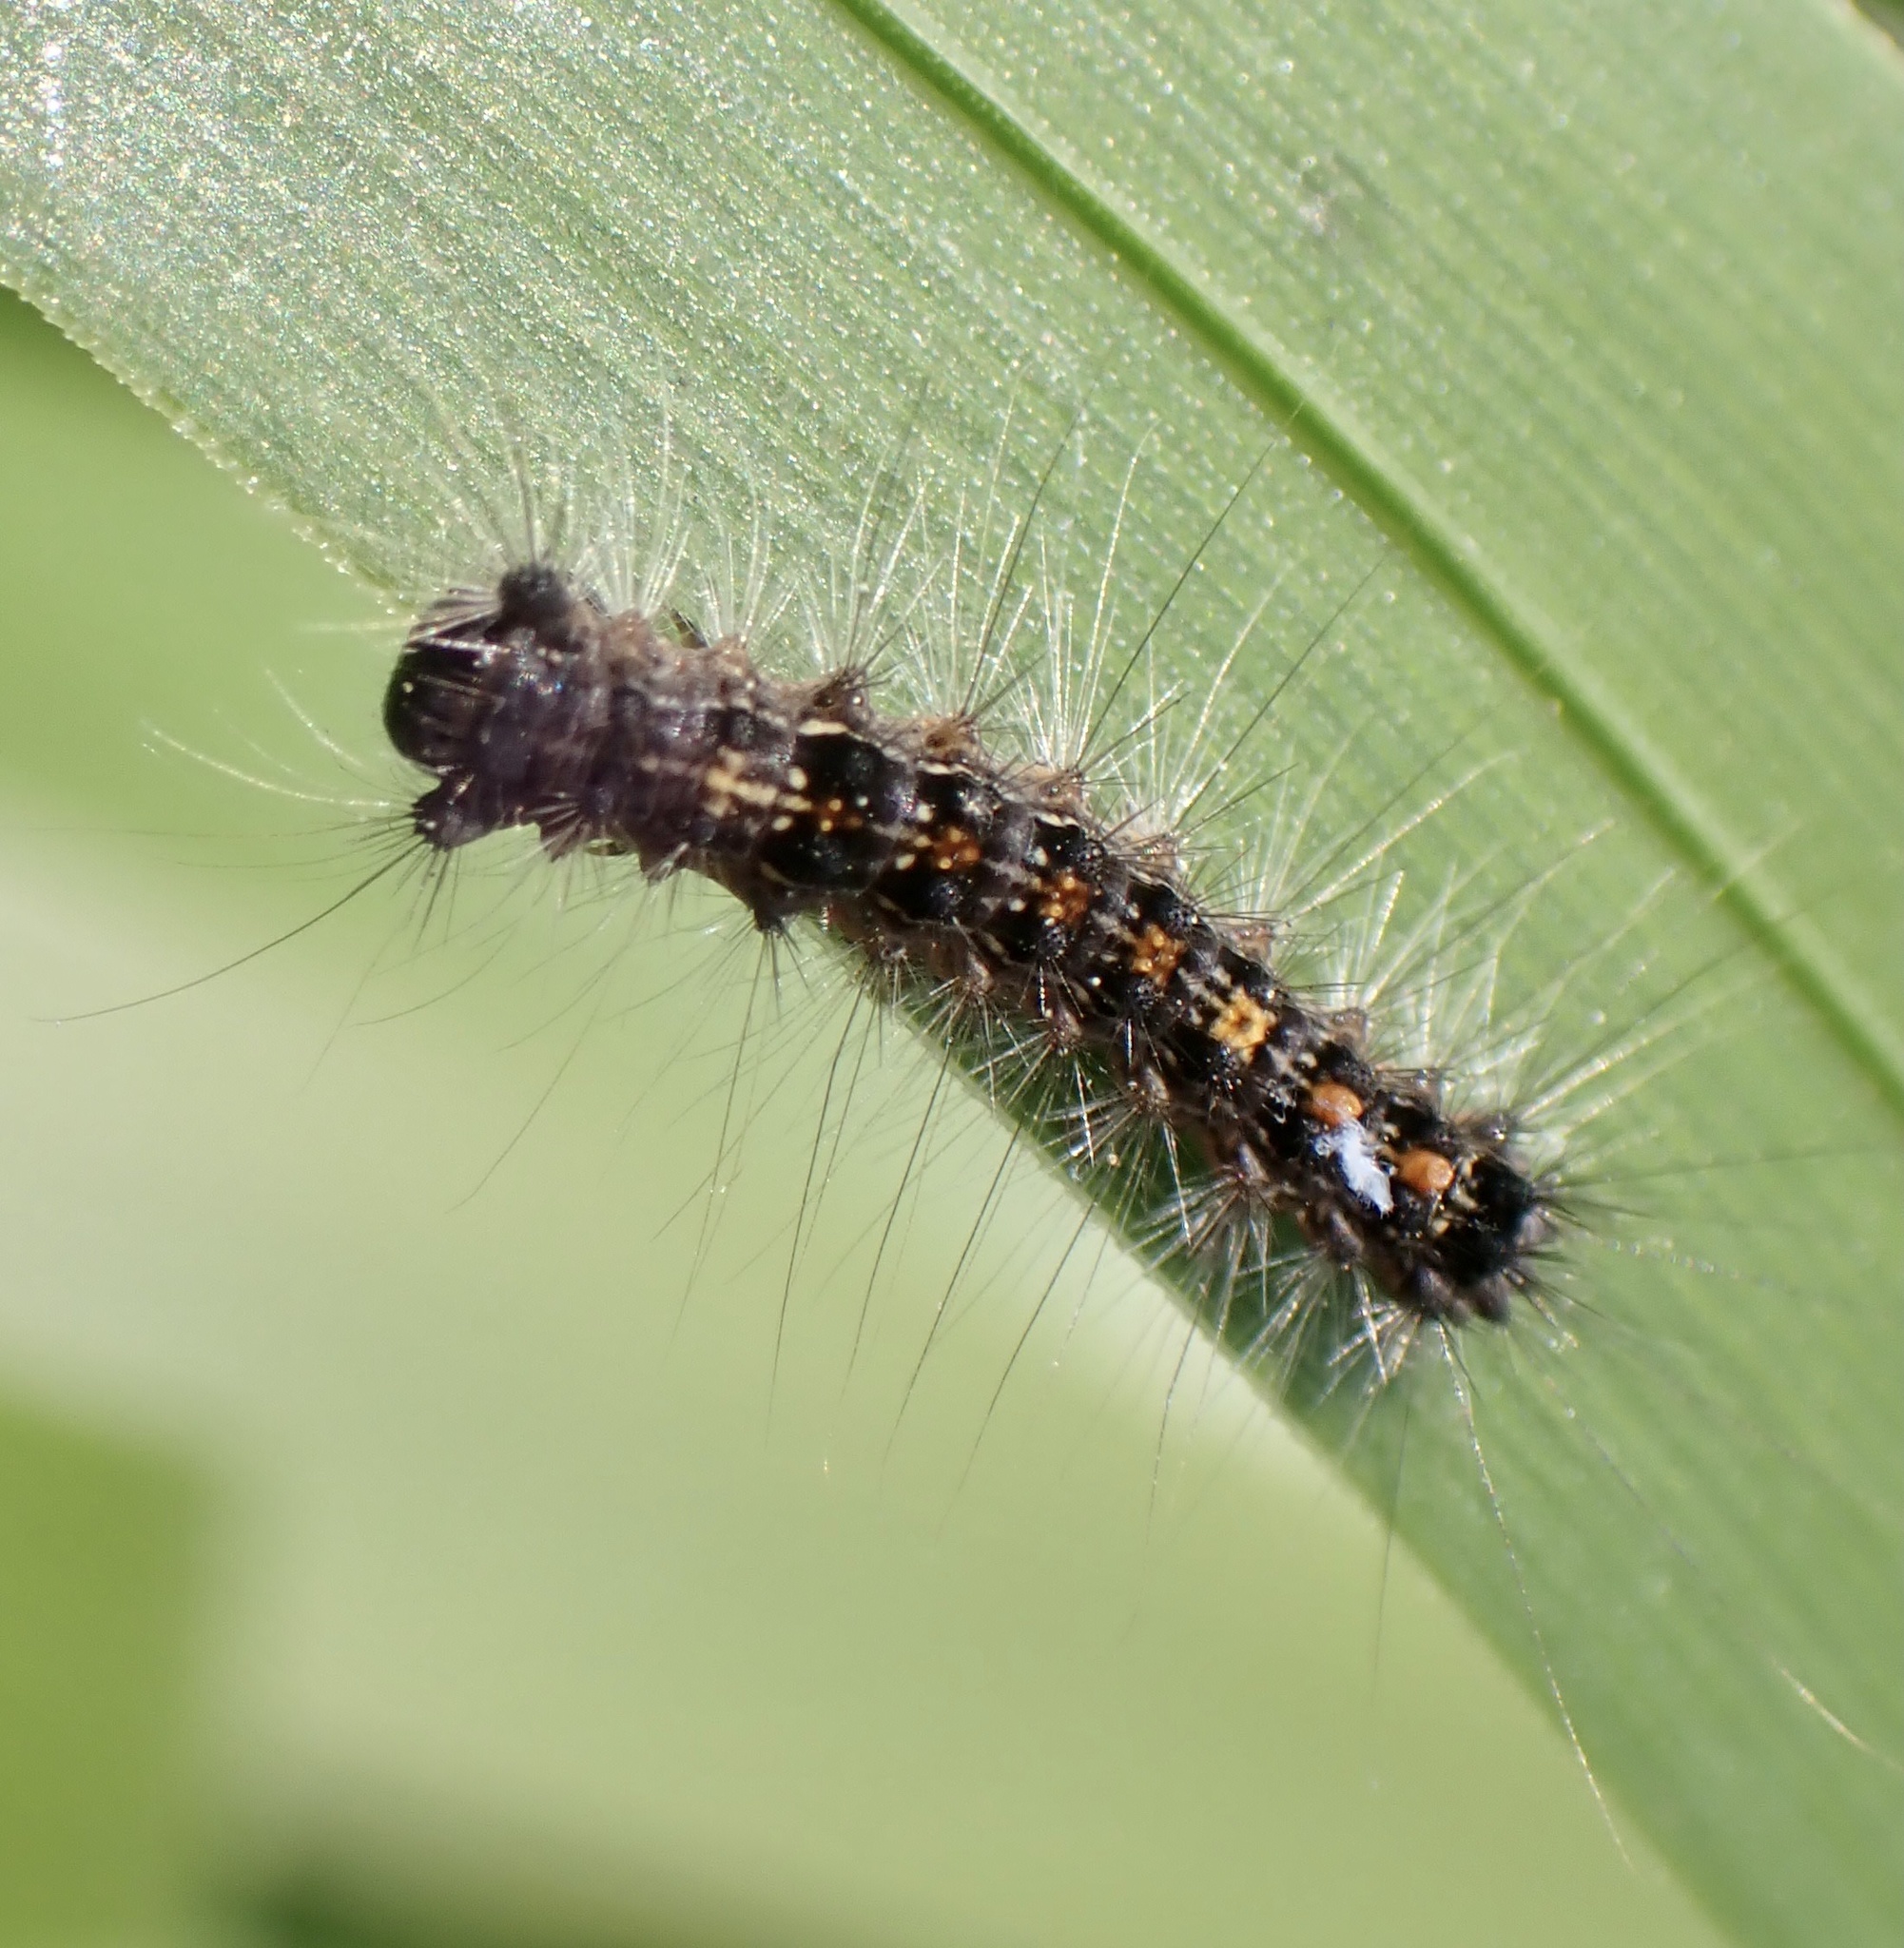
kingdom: Animalia
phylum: Arthropoda
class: Insecta
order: Lepidoptera
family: Erebidae
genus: Lymantria
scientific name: Lymantria dispar
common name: Gypsy moth
